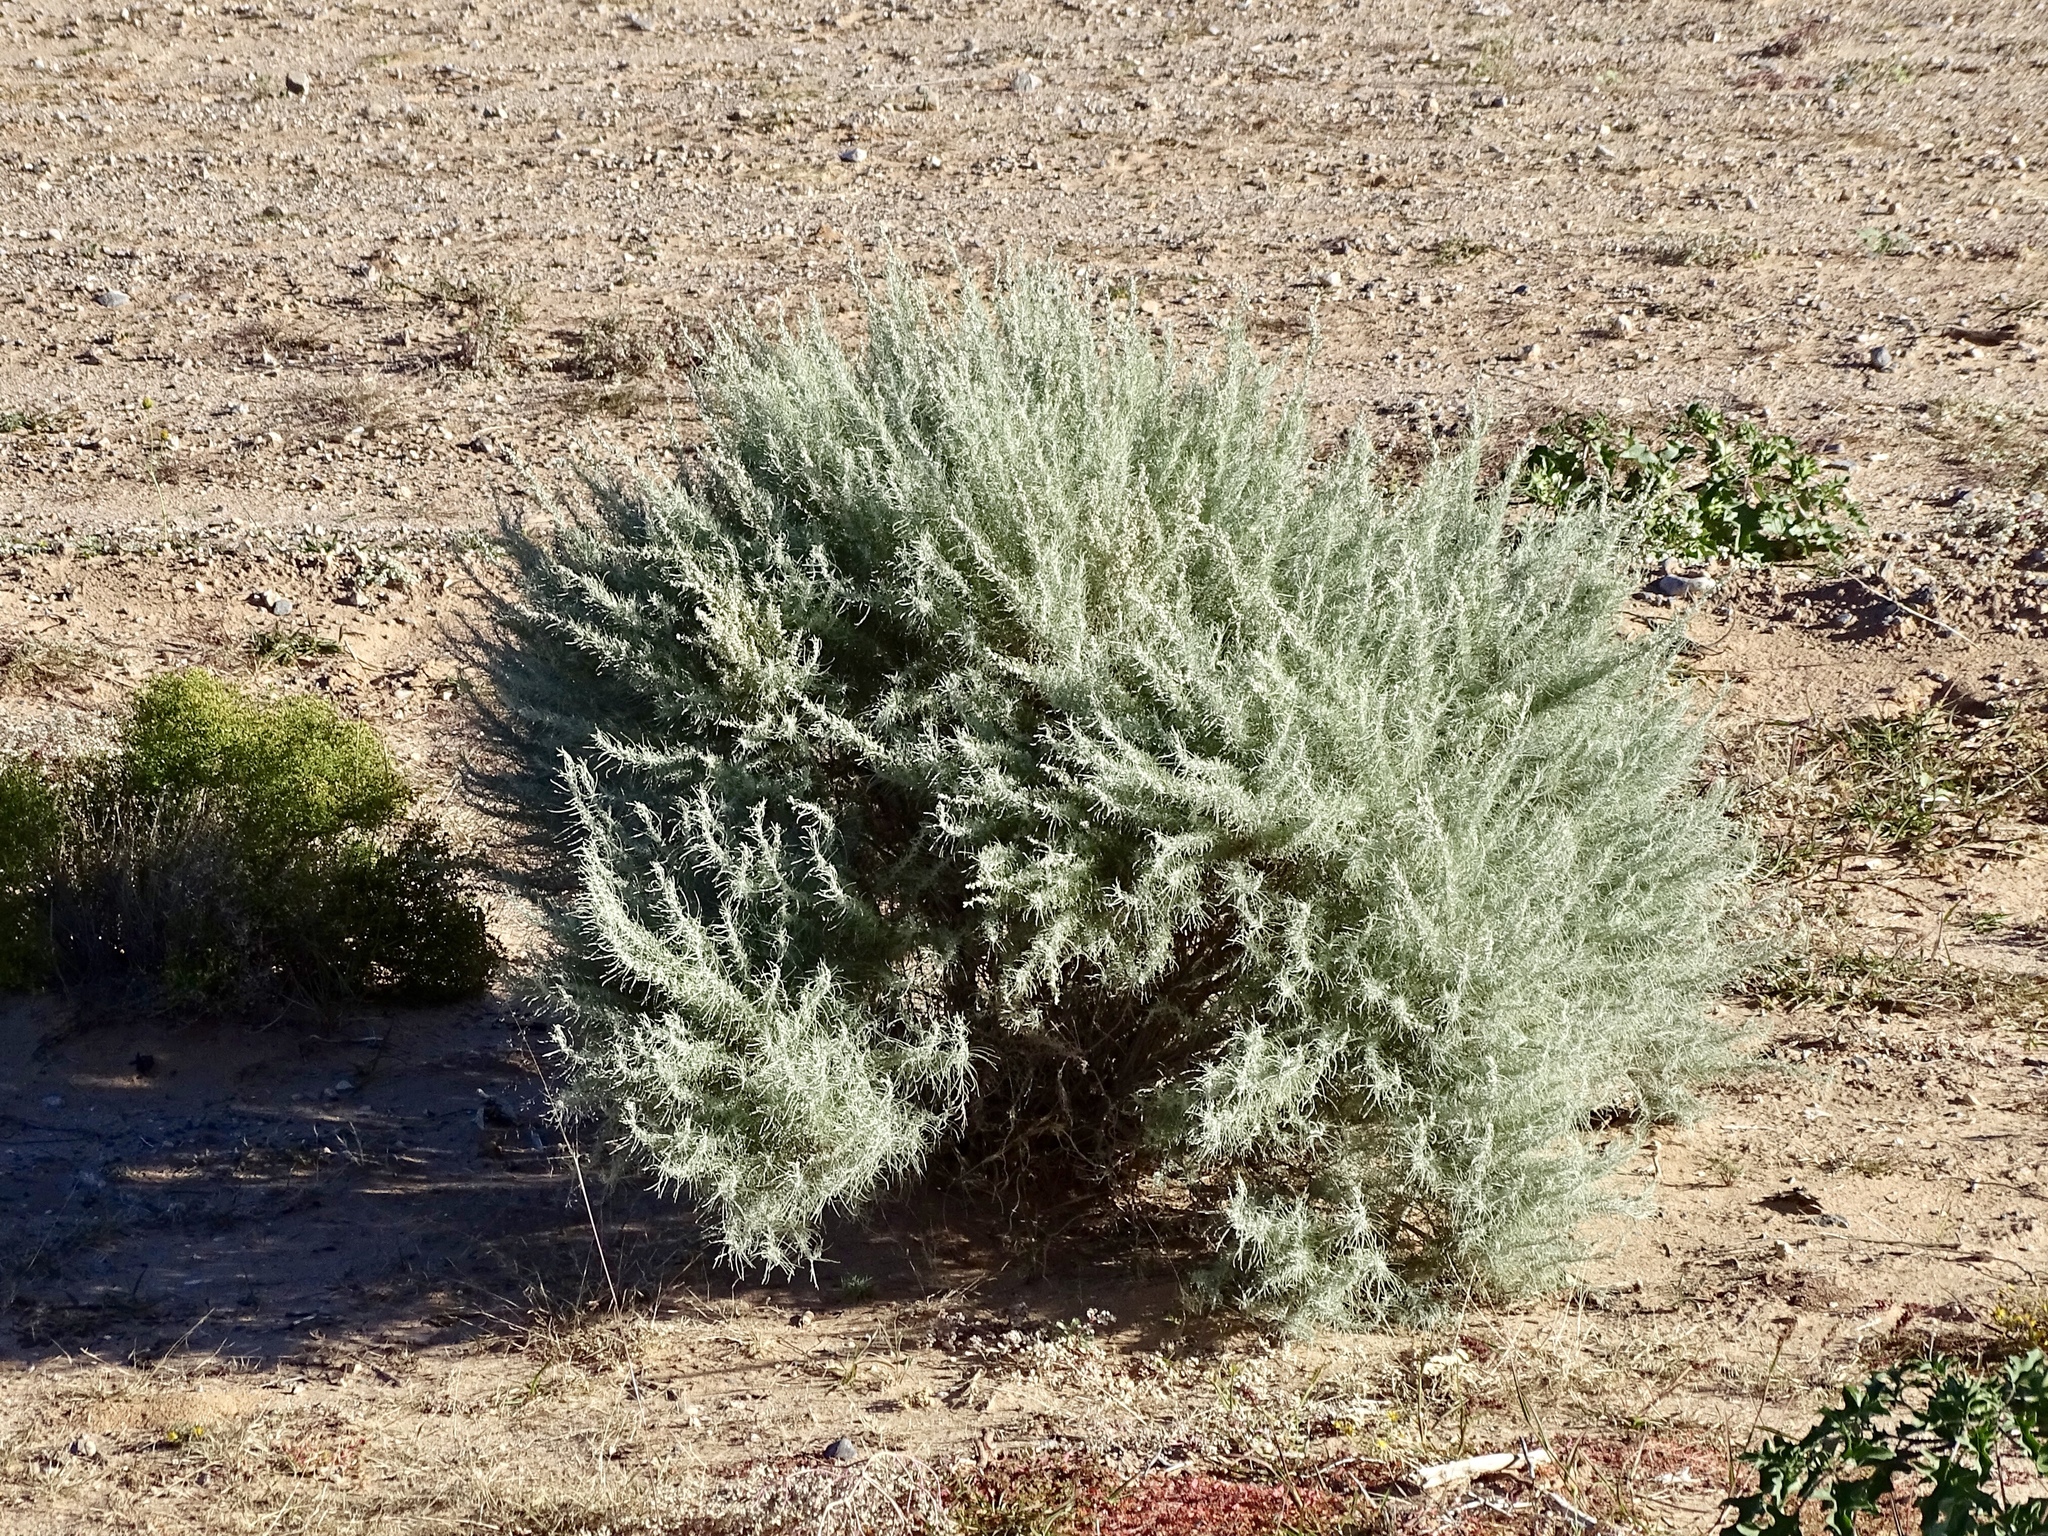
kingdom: Plantae
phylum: Tracheophyta
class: Magnoliopsida
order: Asterales
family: Asteraceae
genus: Artemisia
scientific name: Artemisia filifolia
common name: Sand-sage
